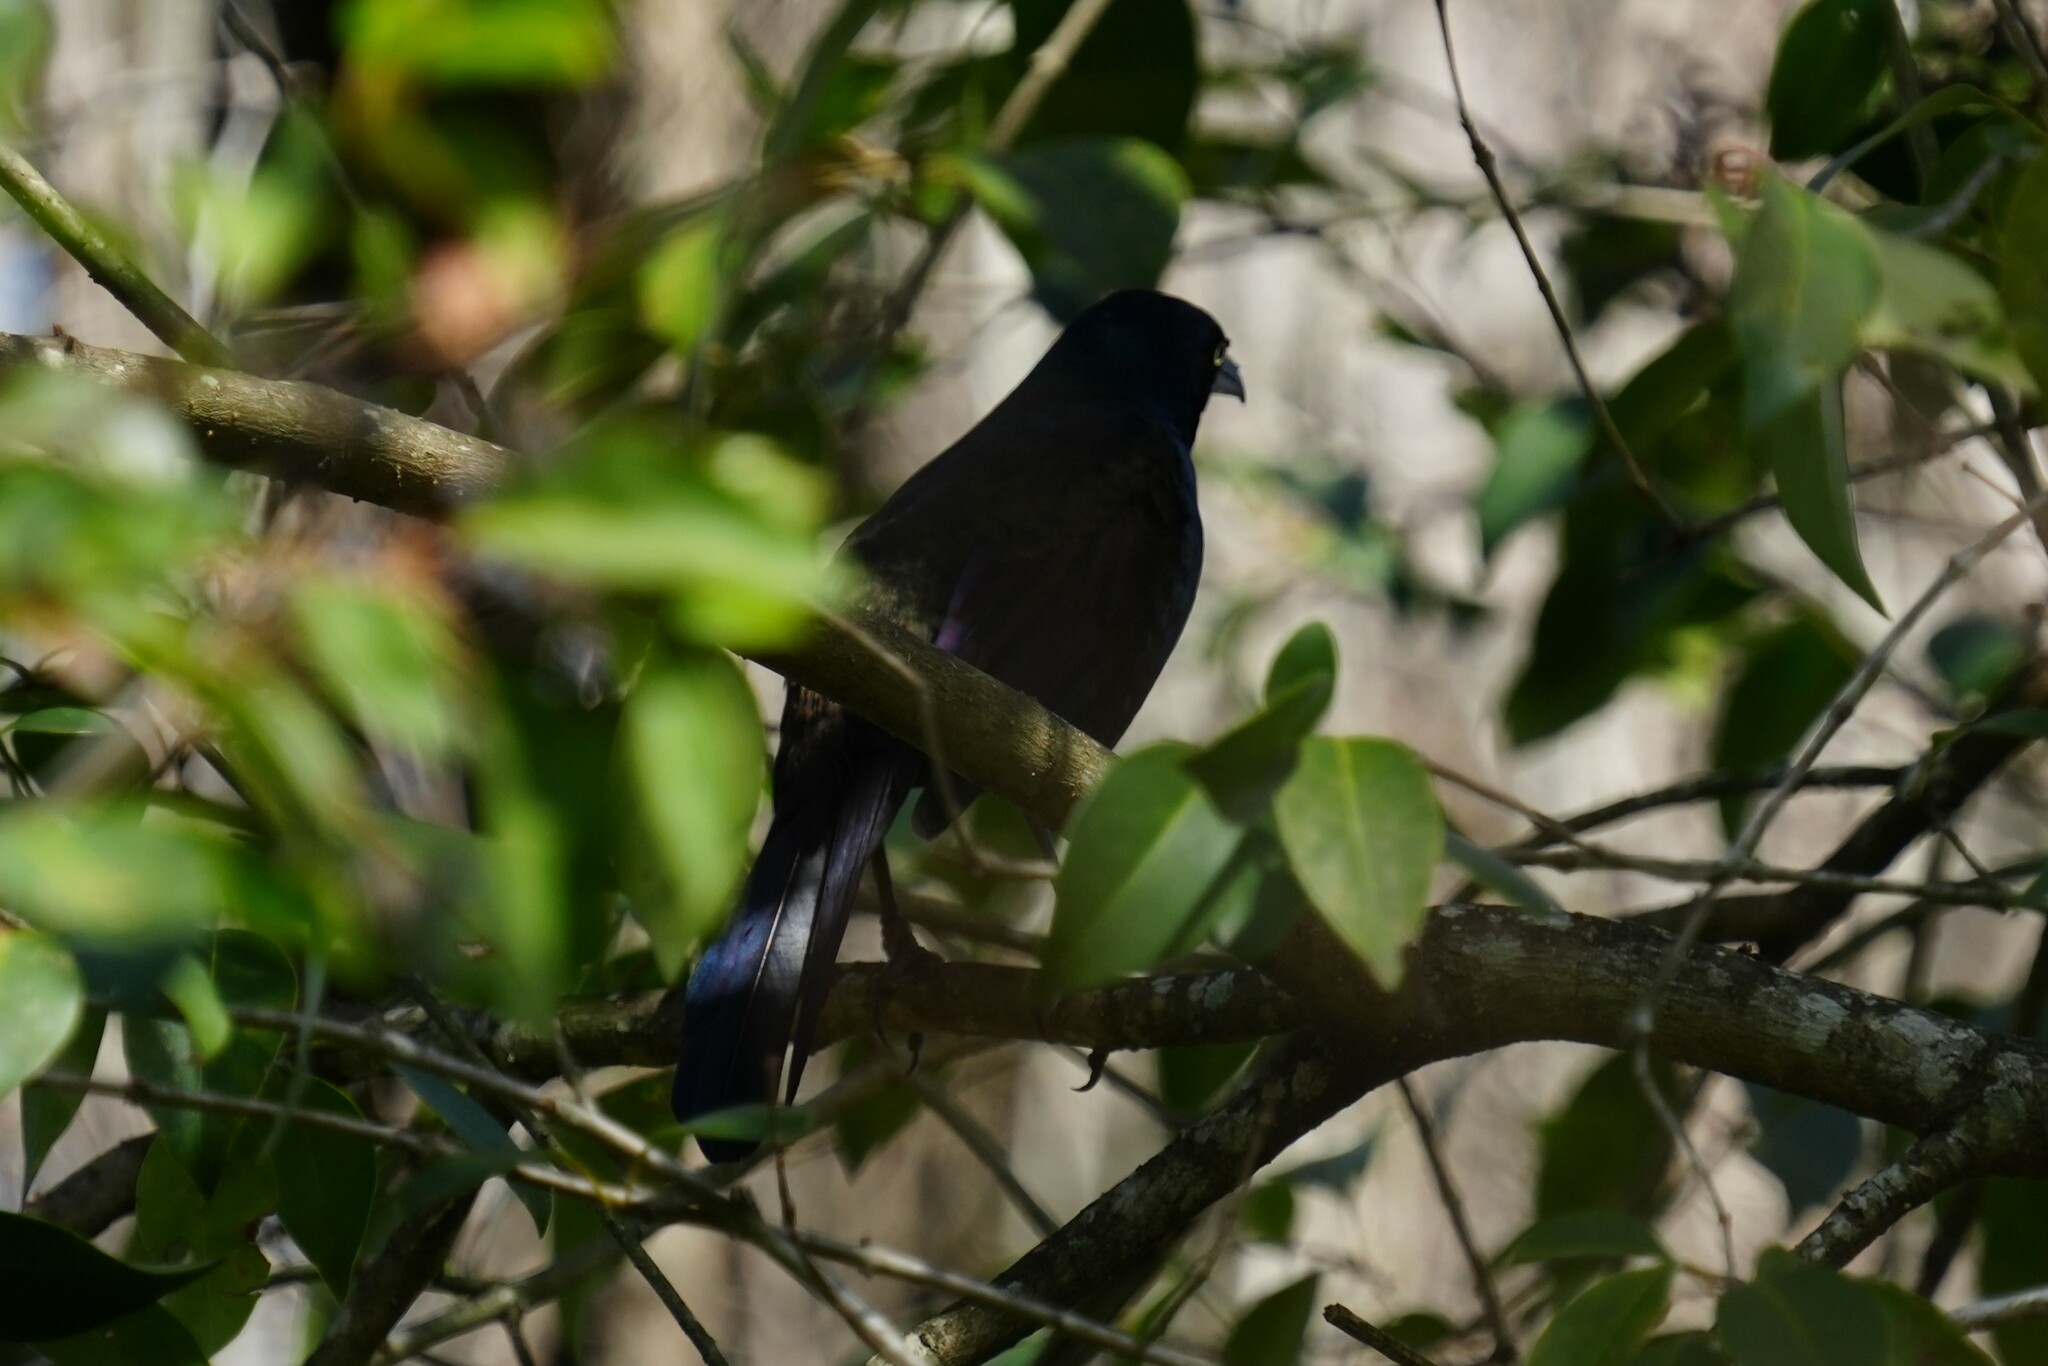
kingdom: Animalia
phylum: Chordata
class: Aves
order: Passeriformes
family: Icteridae
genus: Quiscalus
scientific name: Quiscalus quiscula
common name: Common grackle
